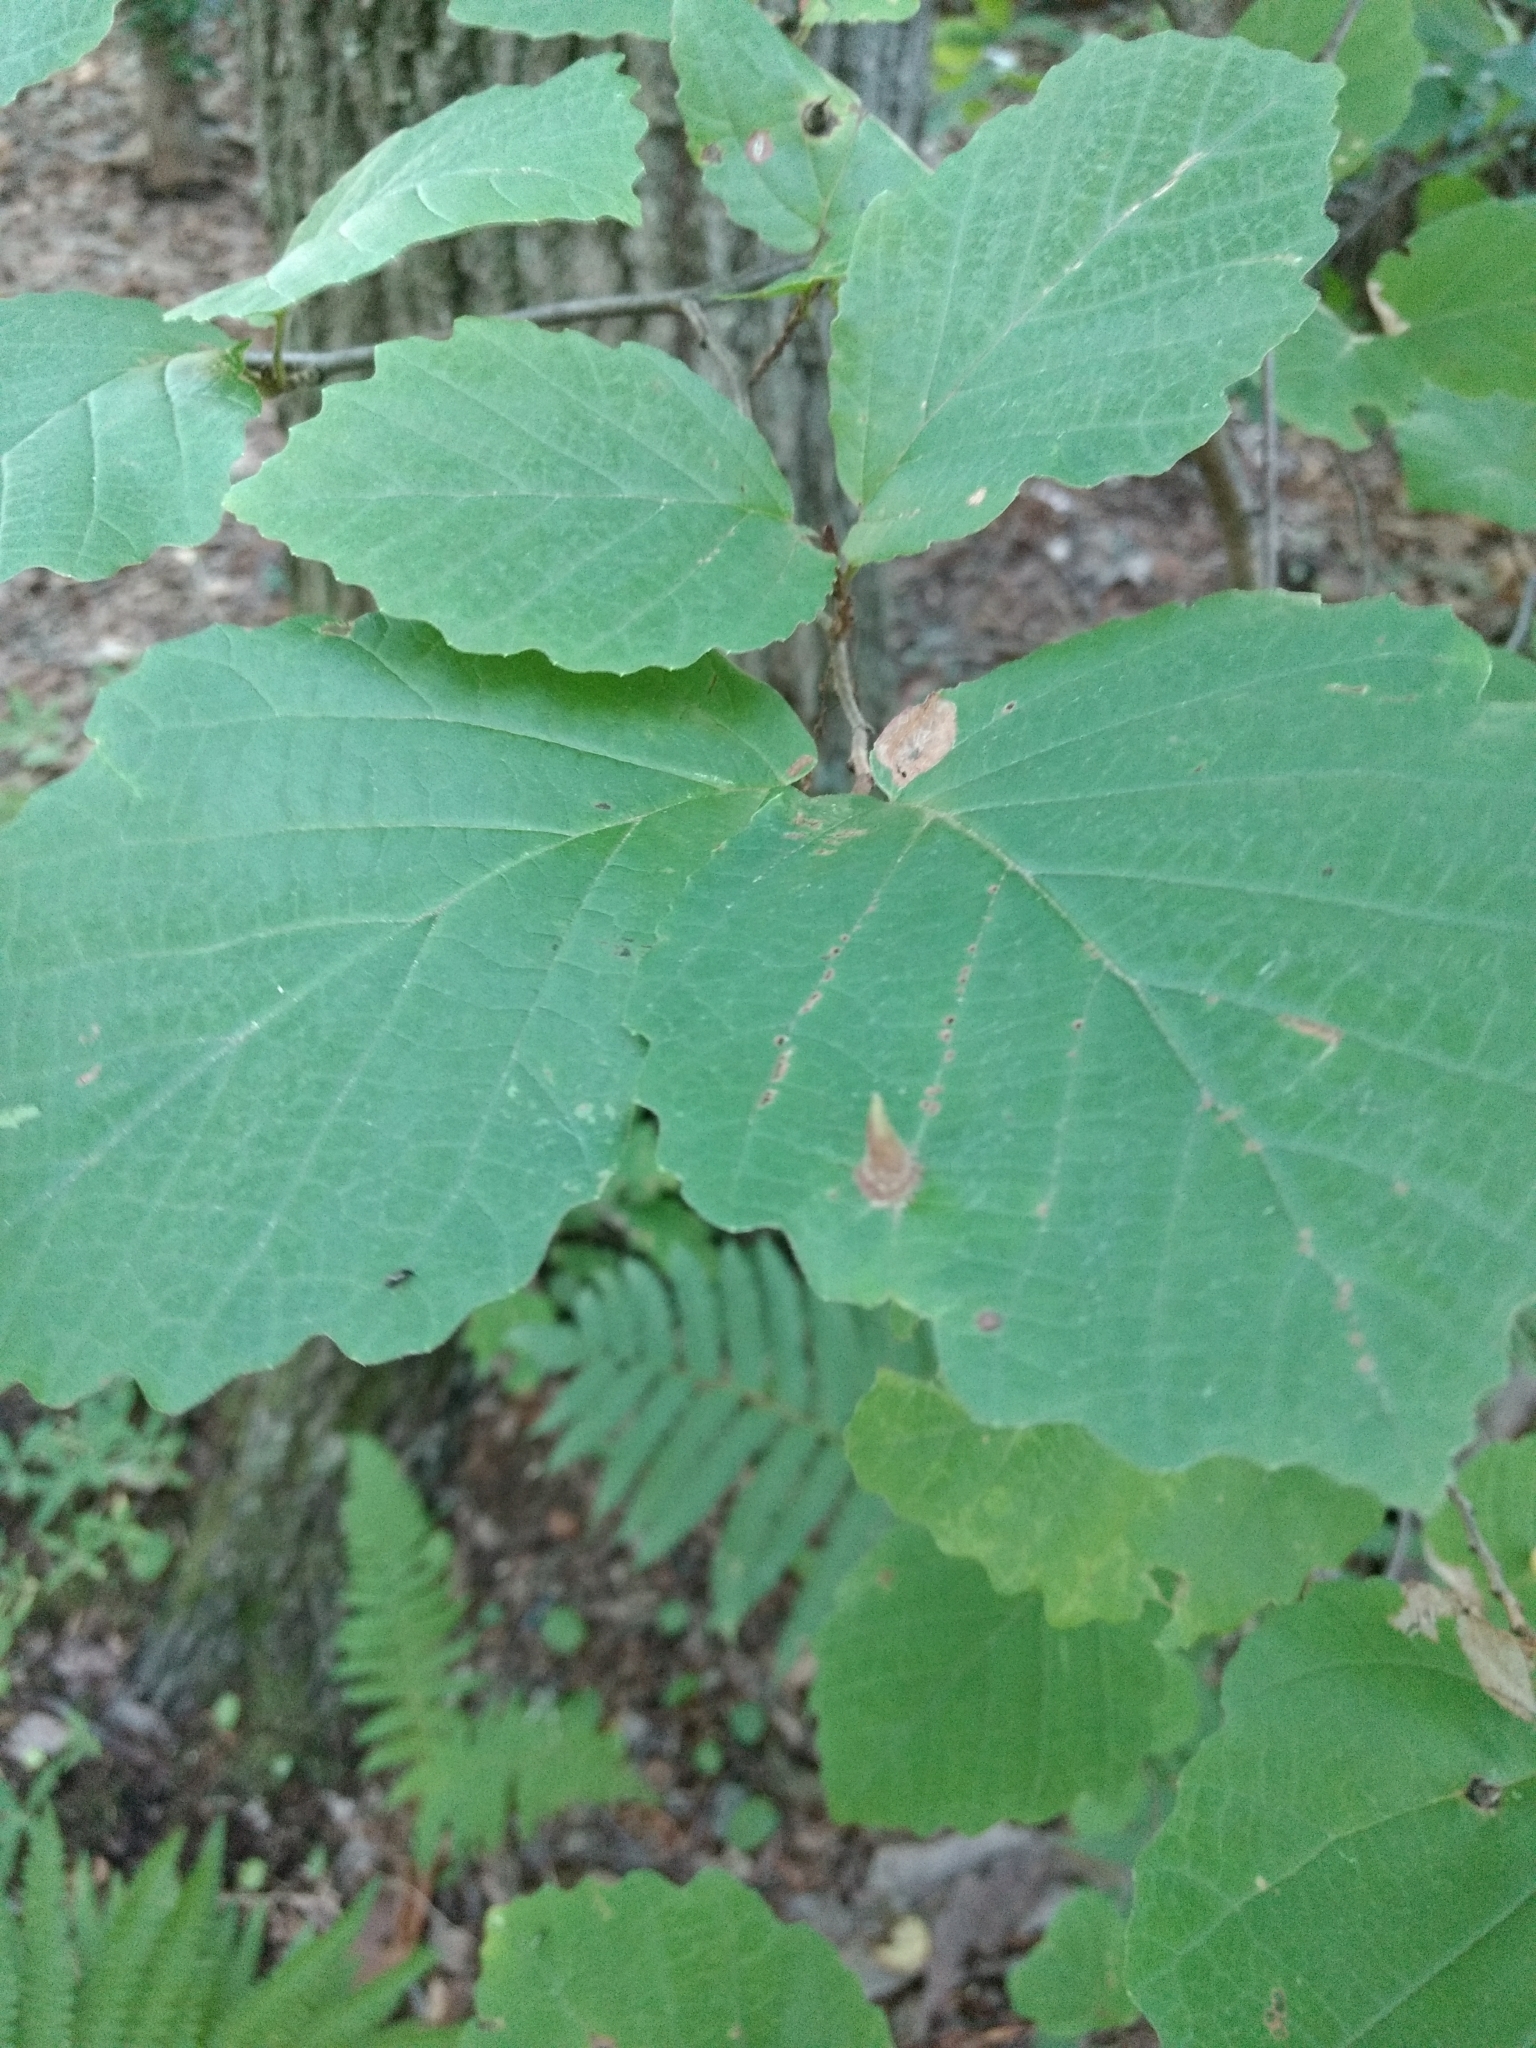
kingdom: Plantae
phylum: Tracheophyta
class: Magnoliopsida
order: Saxifragales
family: Hamamelidaceae
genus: Hamamelis
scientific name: Hamamelis virginiana
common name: Witch-hazel
